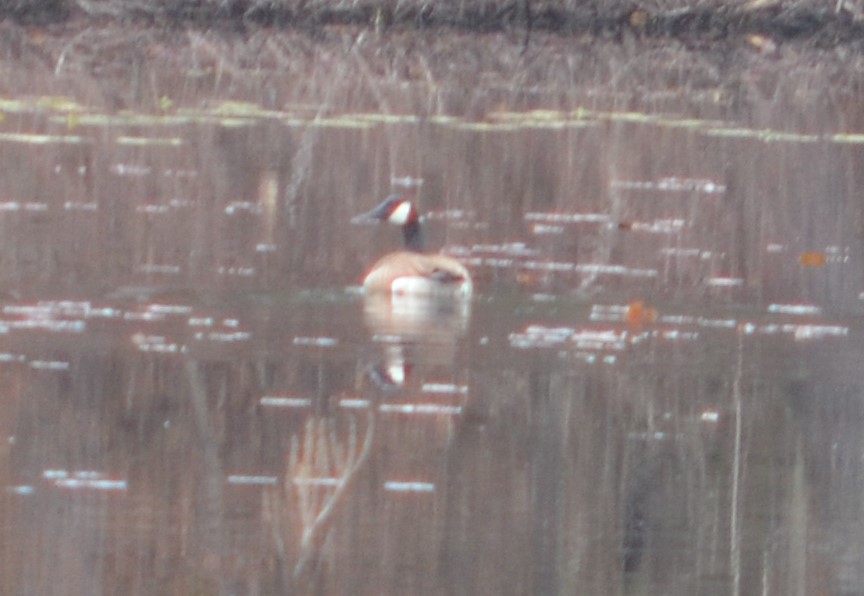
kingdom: Animalia
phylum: Chordata
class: Aves
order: Anseriformes
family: Anatidae
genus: Branta
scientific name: Branta canadensis
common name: Canada goose
